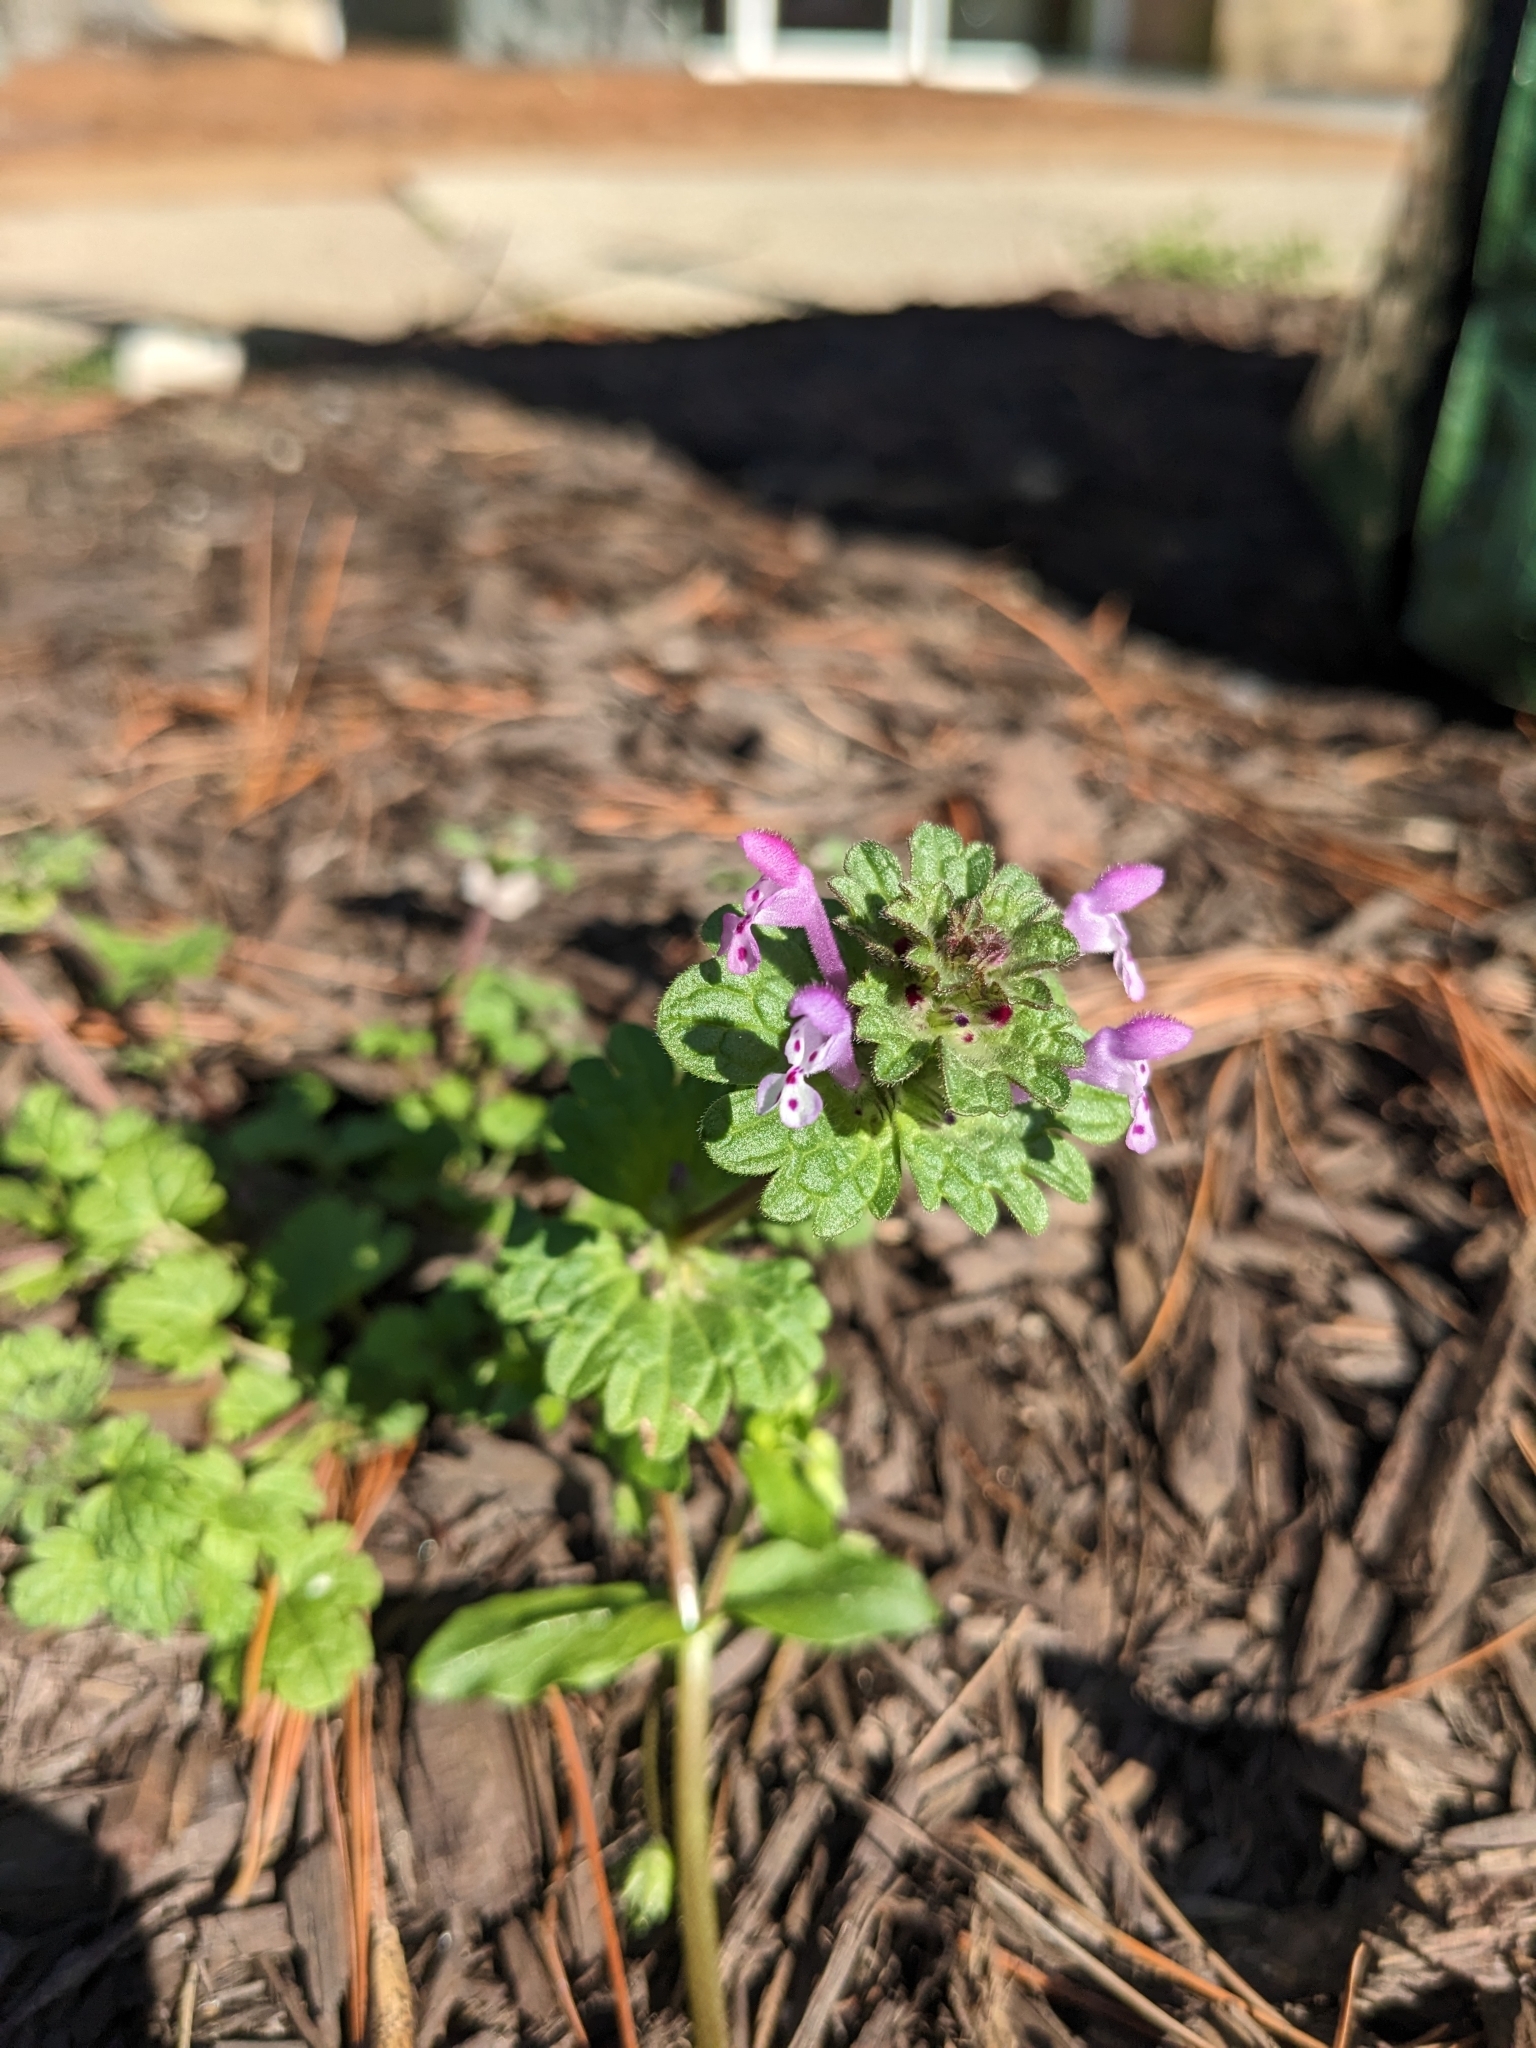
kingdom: Plantae
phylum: Tracheophyta
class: Magnoliopsida
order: Lamiales
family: Lamiaceae
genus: Lamium
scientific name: Lamium amplexicaule
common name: Henbit dead-nettle
